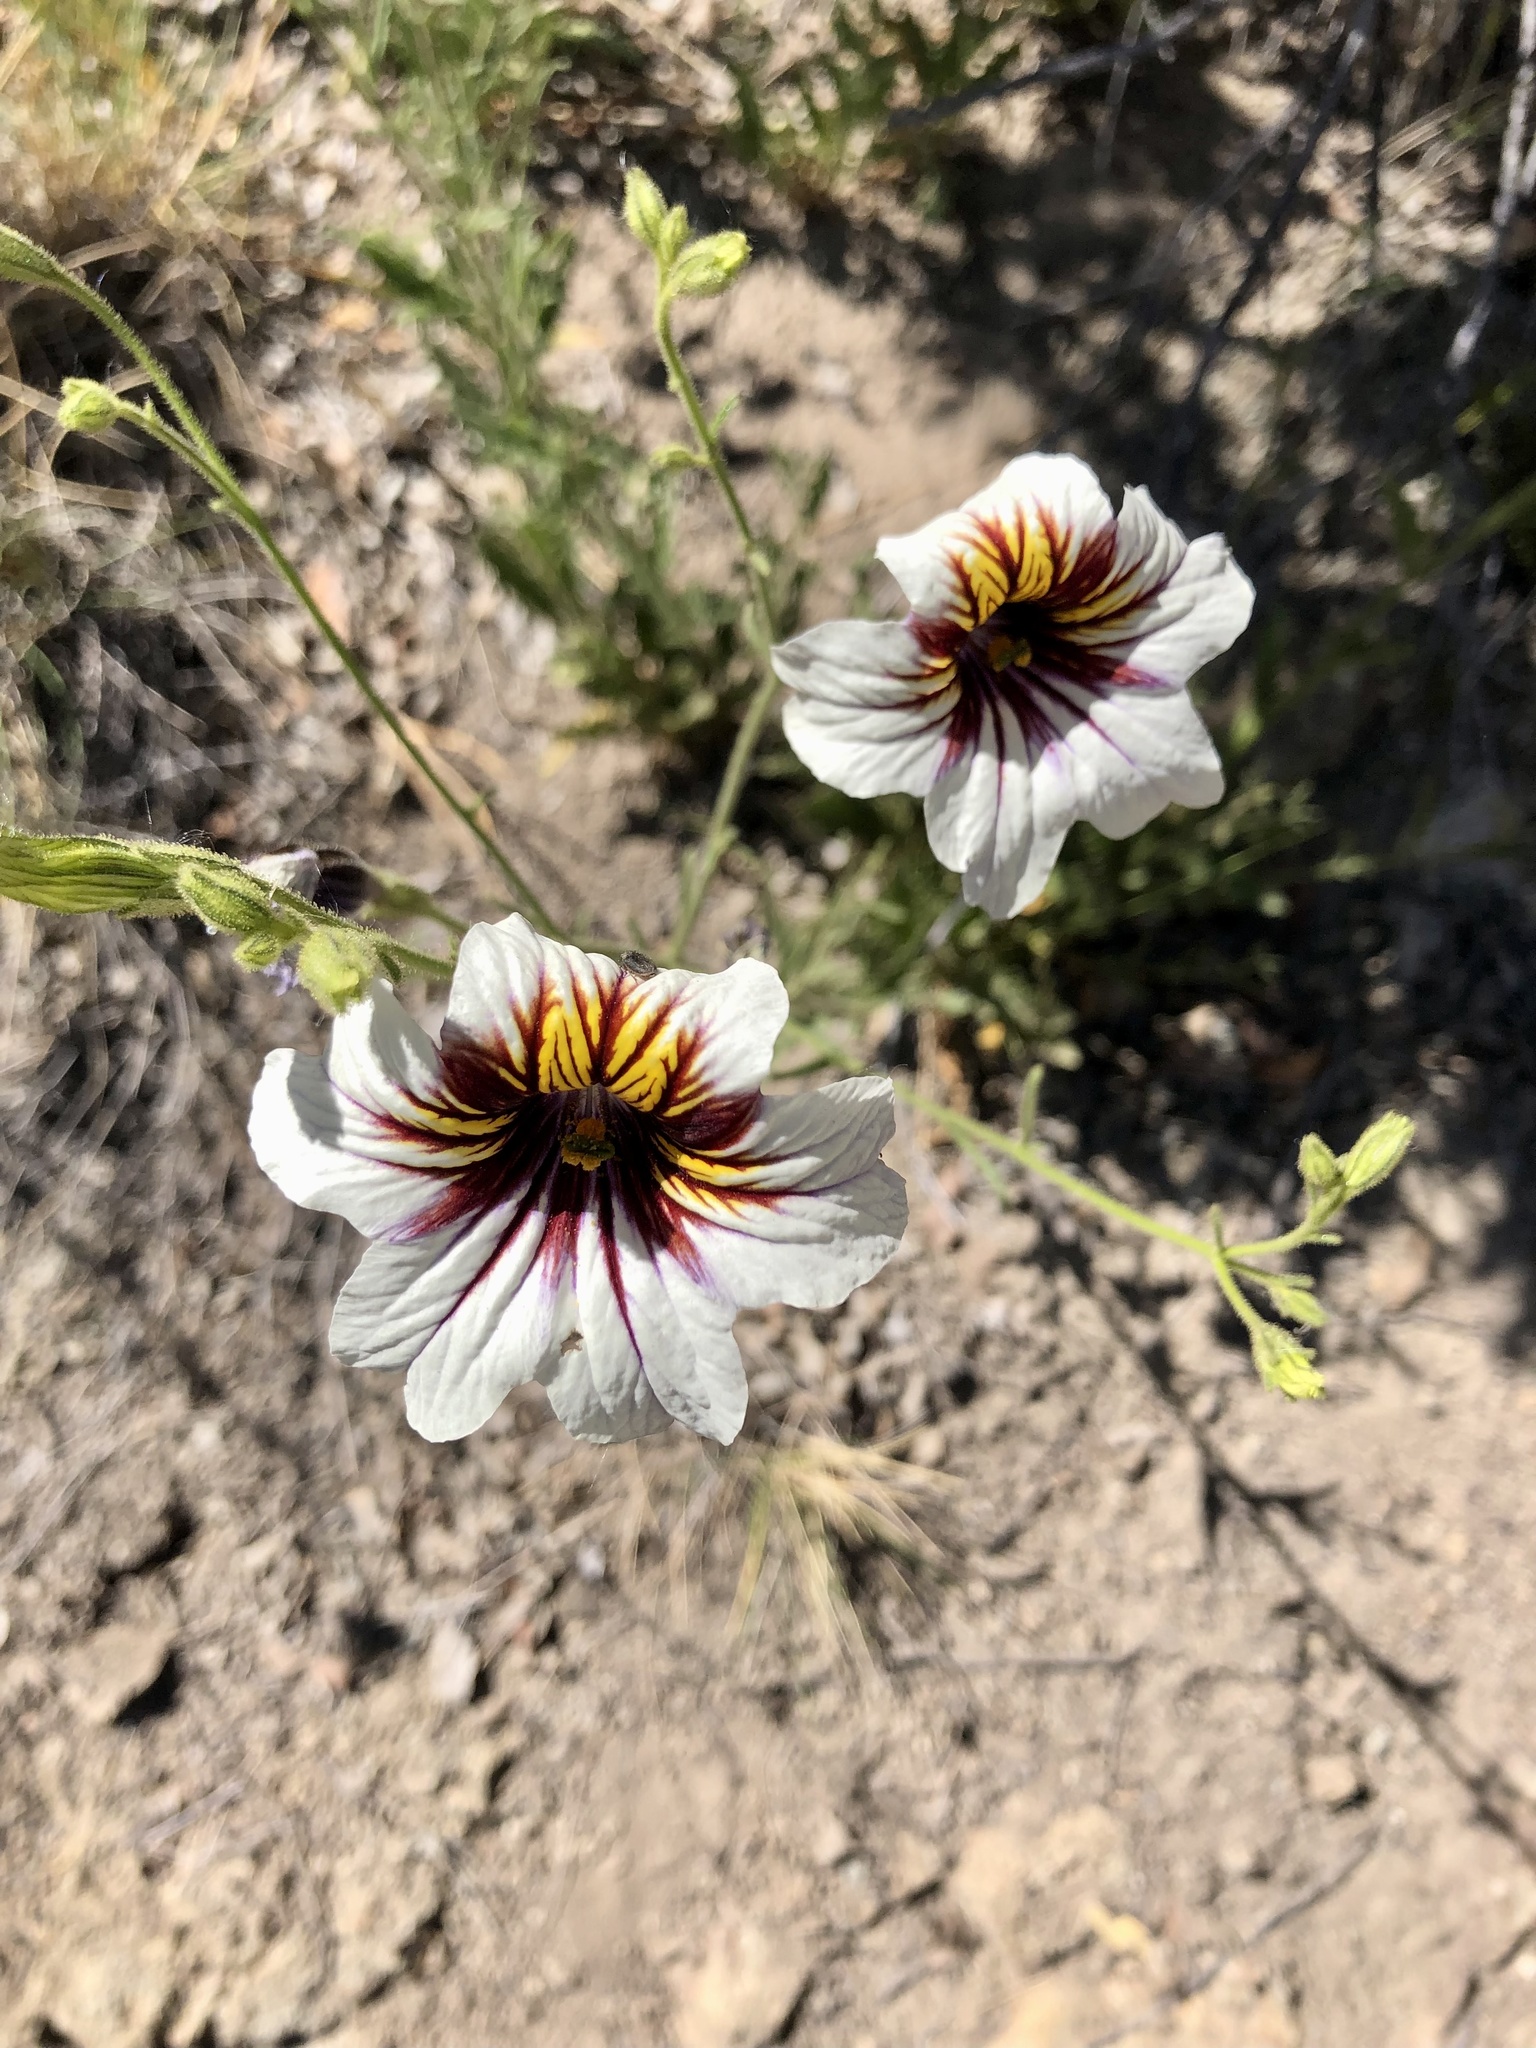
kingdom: Plantae
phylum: Tracheophyta
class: Magnoliopsida
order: Solanales
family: Solanaceae
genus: Salpiglossis
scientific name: Salpiglossis sinuata
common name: Painted-tongue
